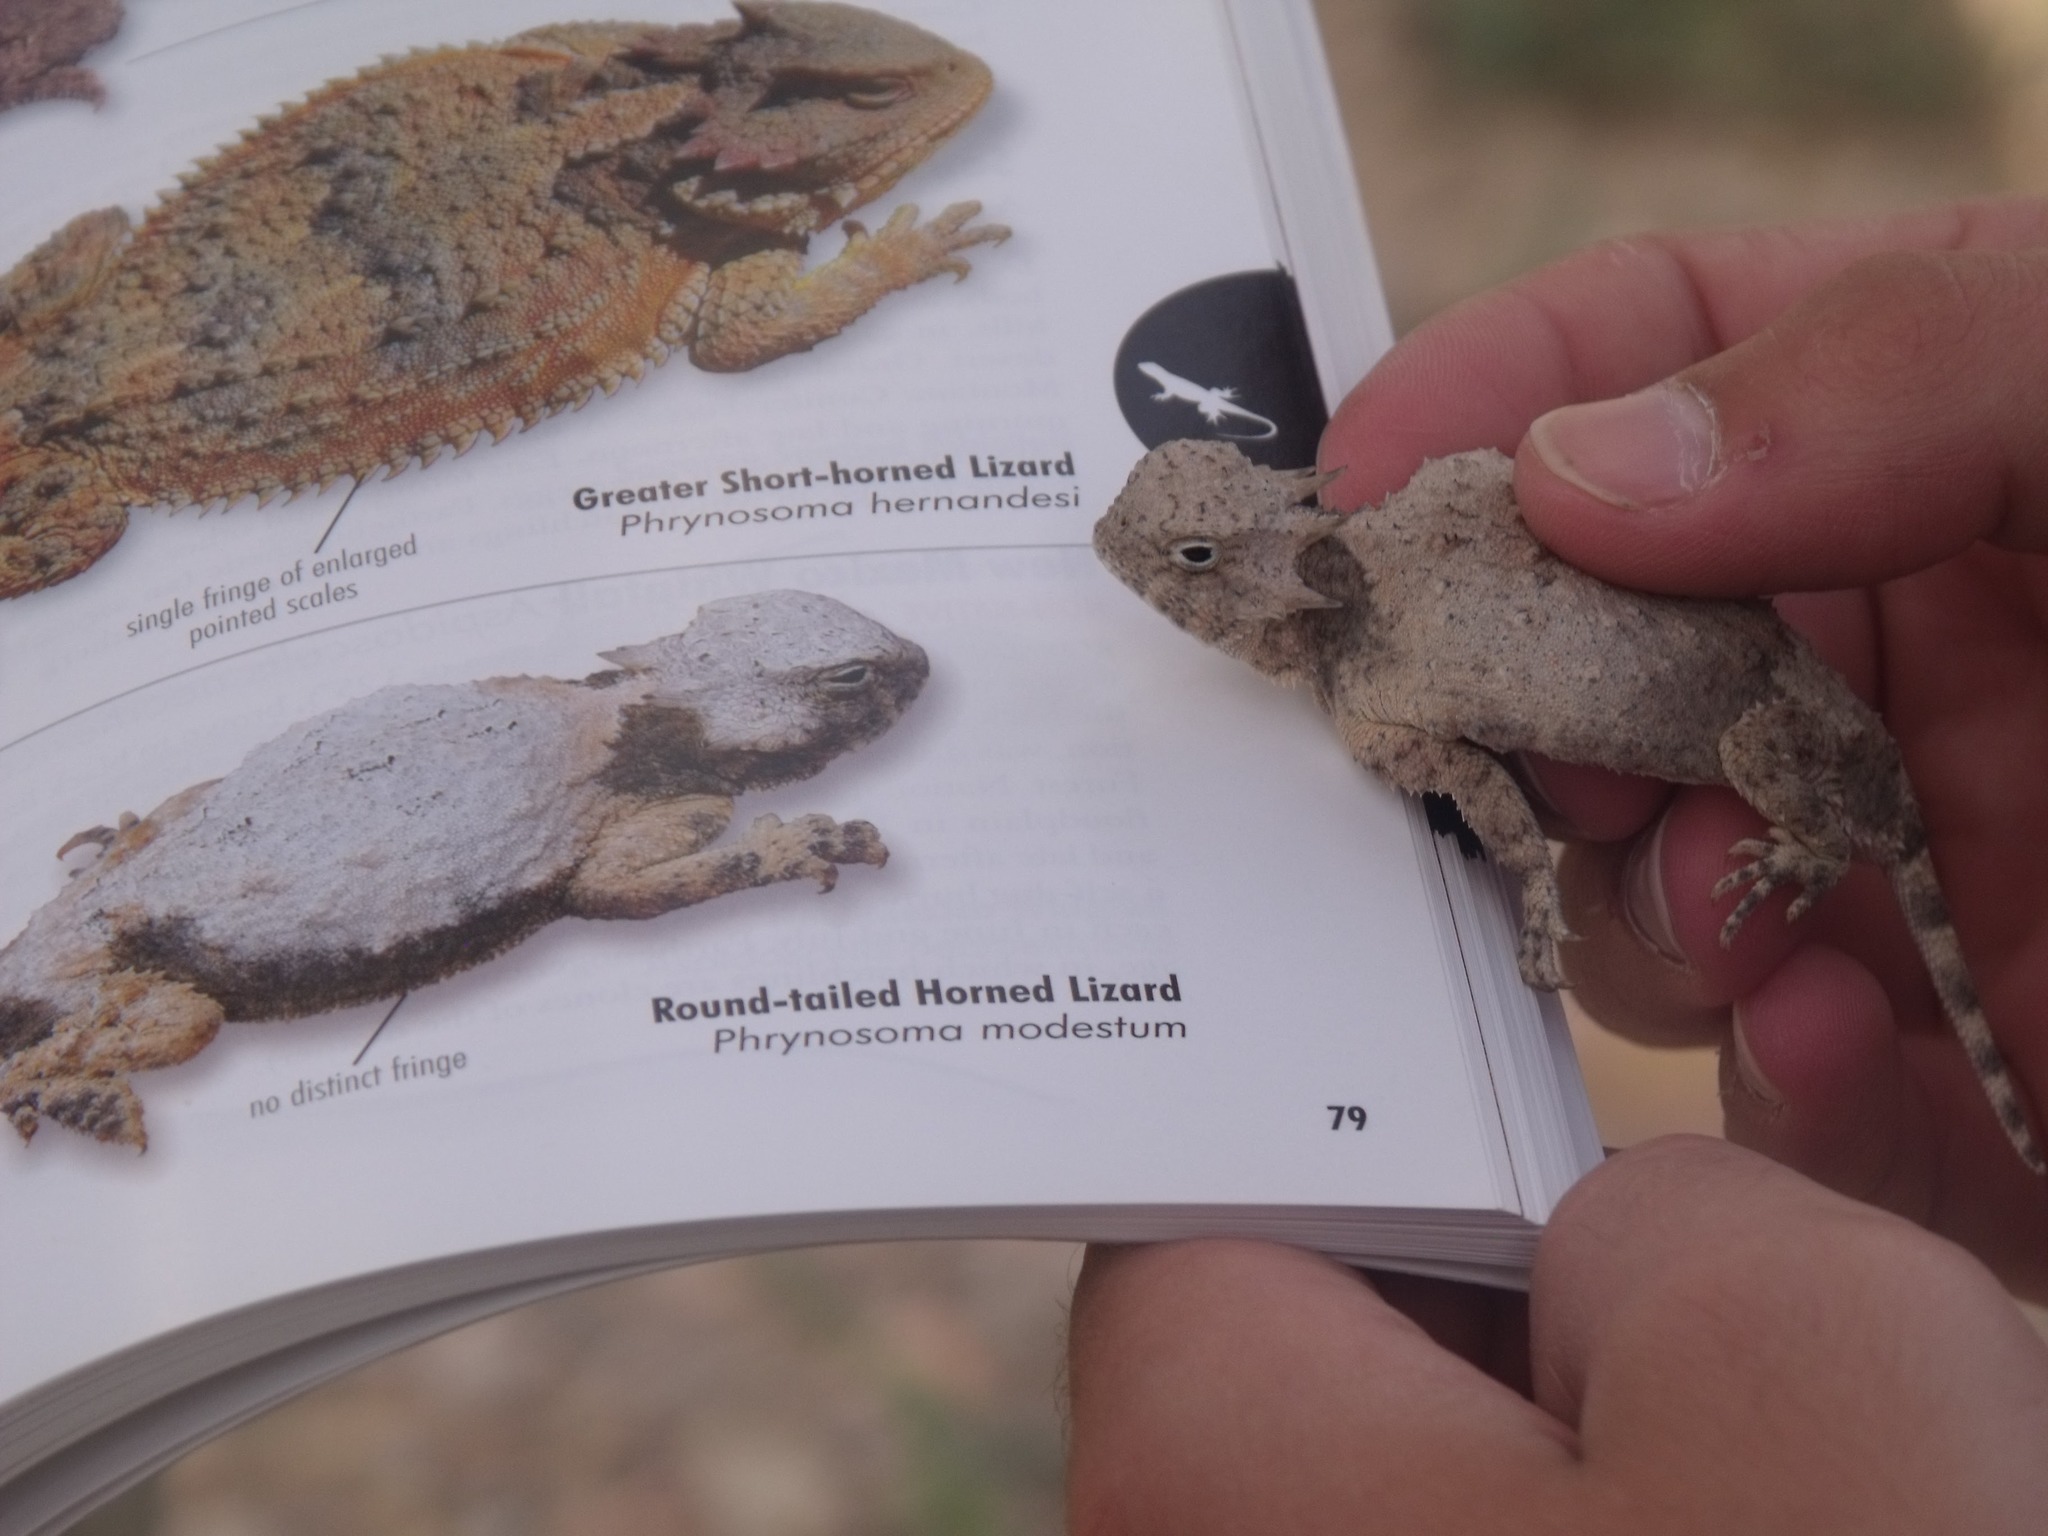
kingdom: Animalia
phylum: Chordata
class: Squamata
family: Phrynosomatidae
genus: Phrynosoma
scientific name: Phrynosoma modestum
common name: Roundtail horned lizard
